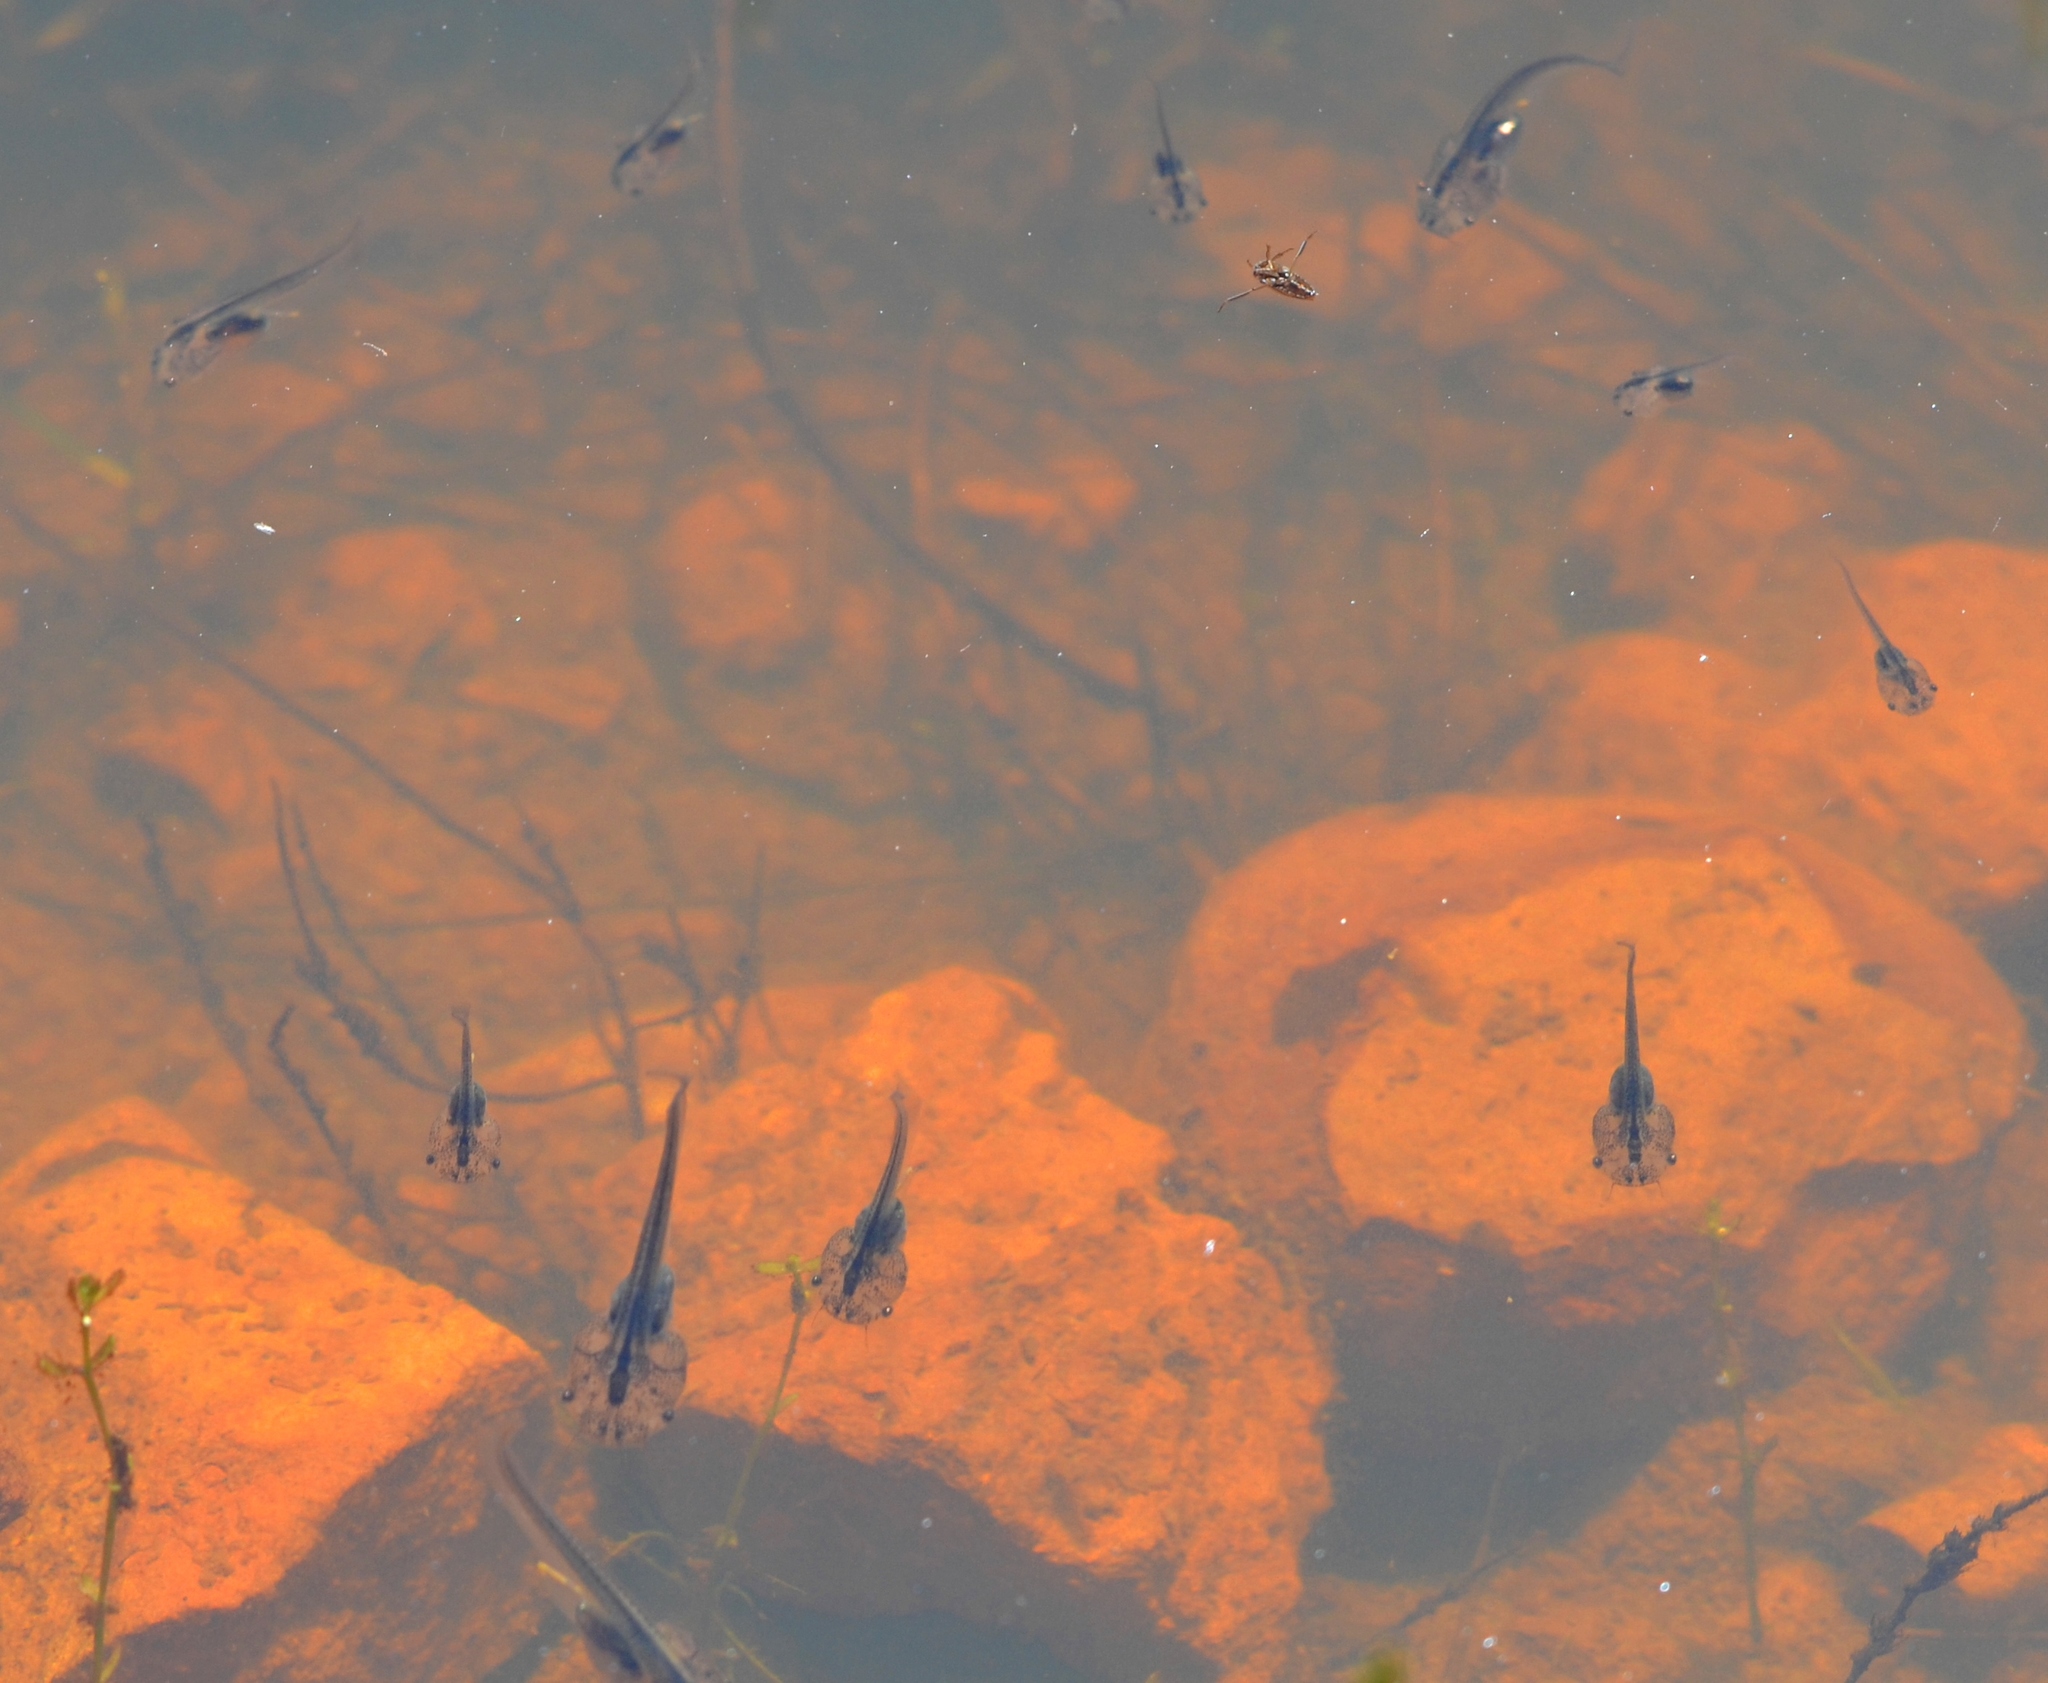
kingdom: Animalia
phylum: Chordata
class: Amphibia
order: Anura
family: Pipidae
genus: Xenopus
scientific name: Xenopus laevis
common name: African clawed frog
